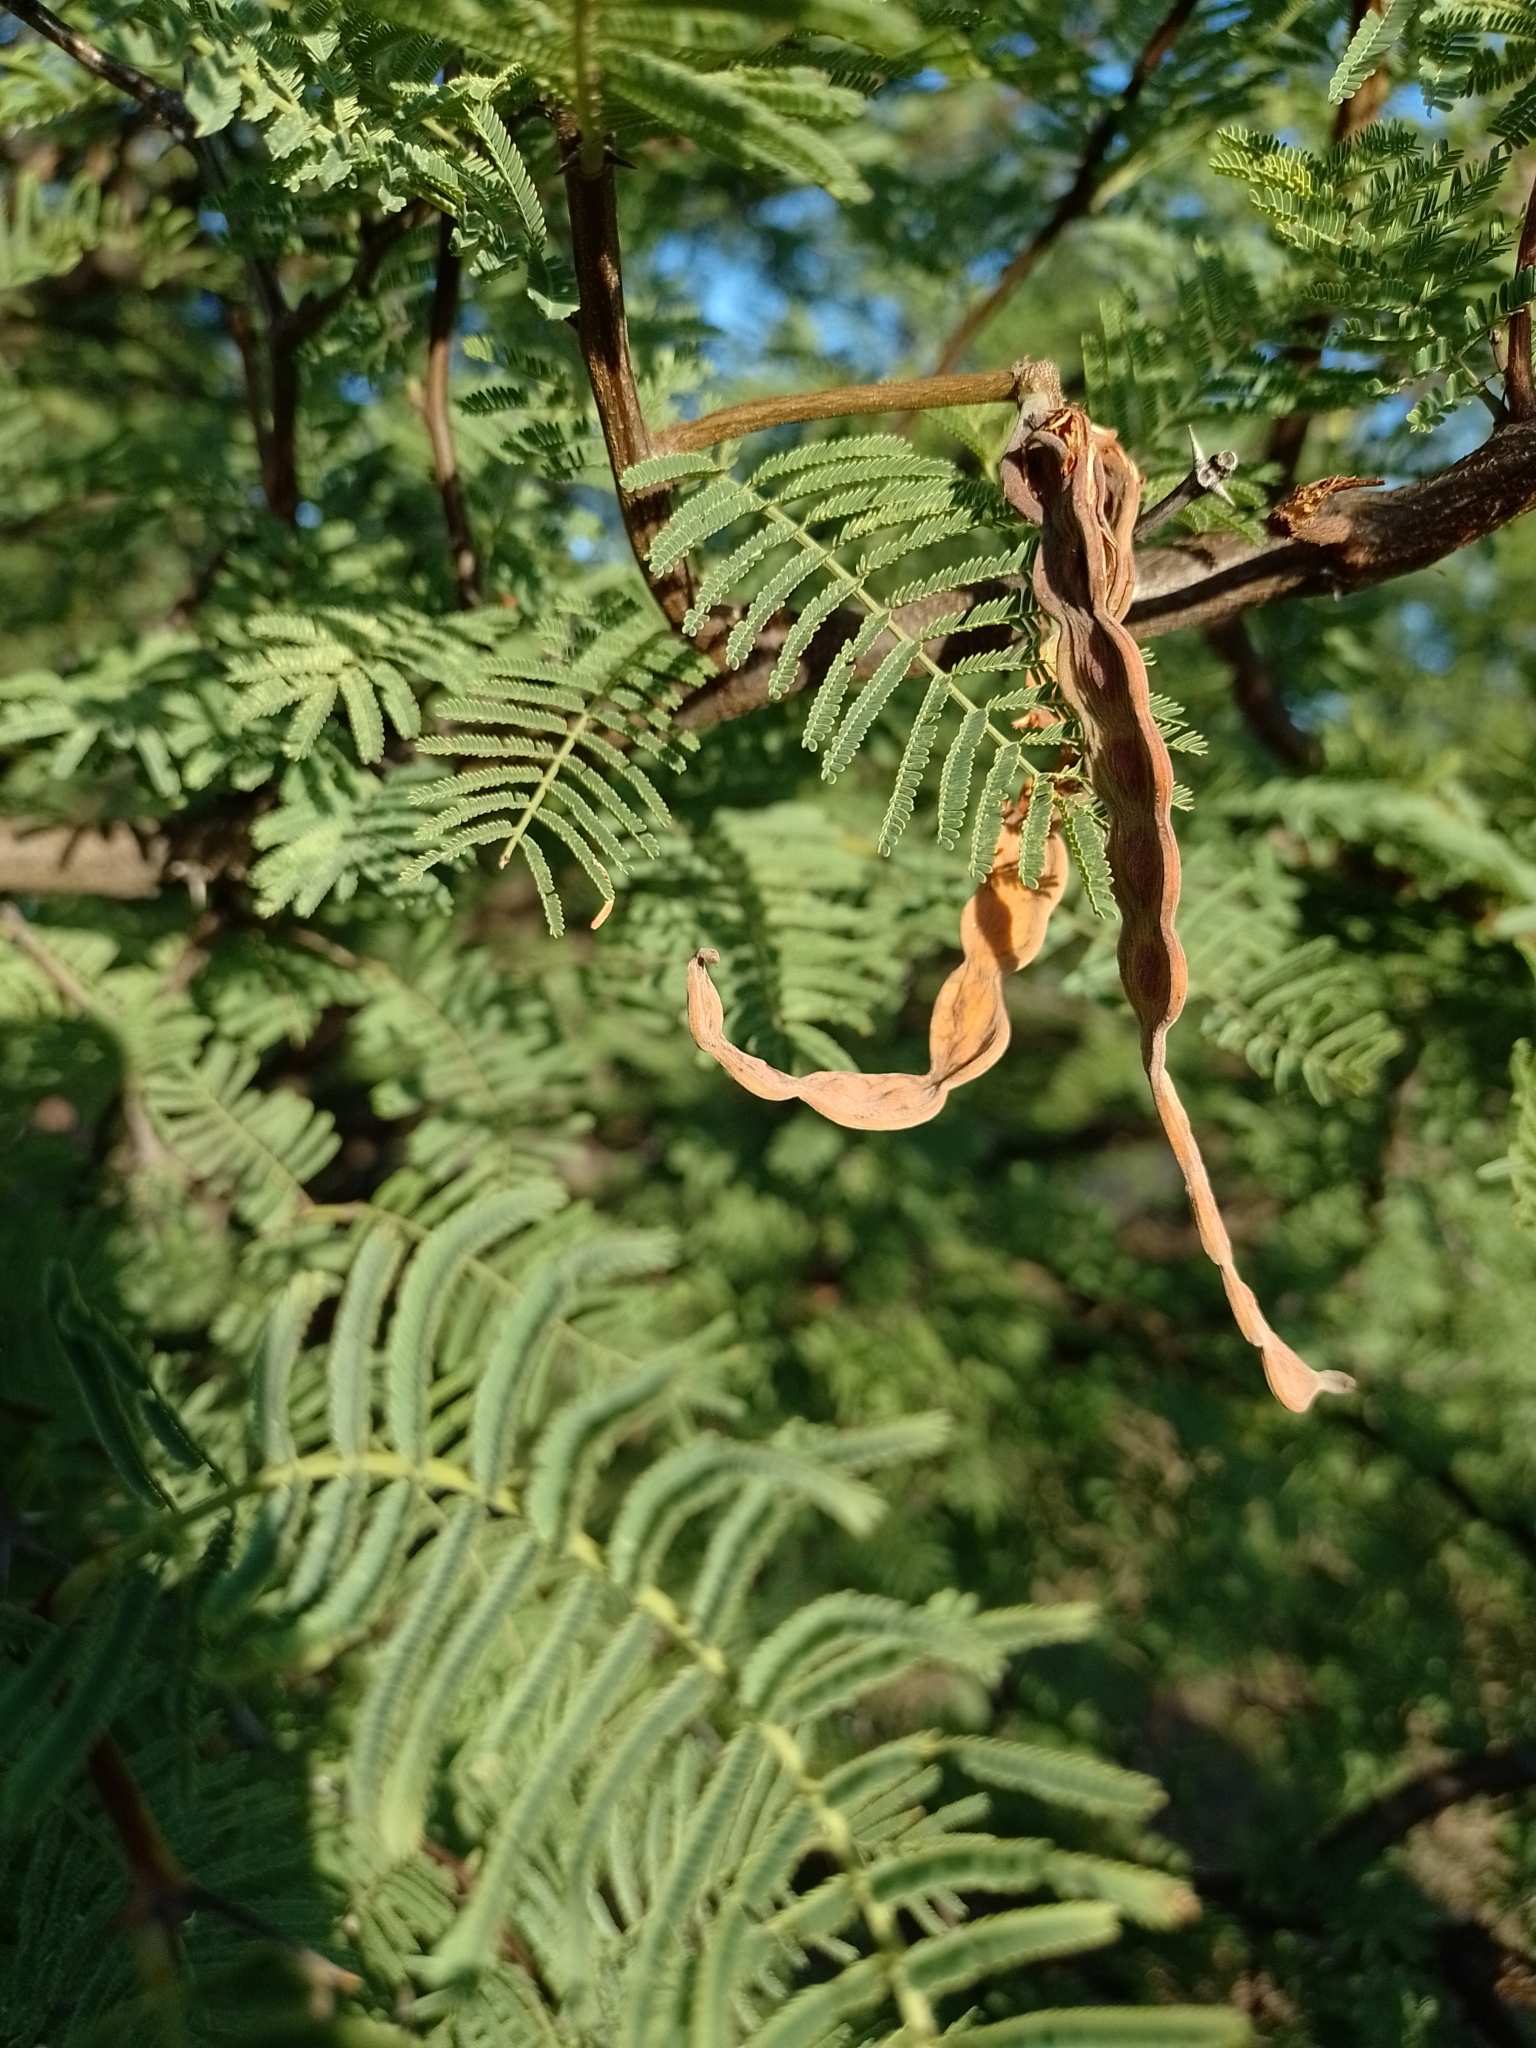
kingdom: Plantae
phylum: Tracheophyta
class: Magnoliopsida
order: Fabales
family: Fabaceae
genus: Vachellia
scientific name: Vachellia aroma
